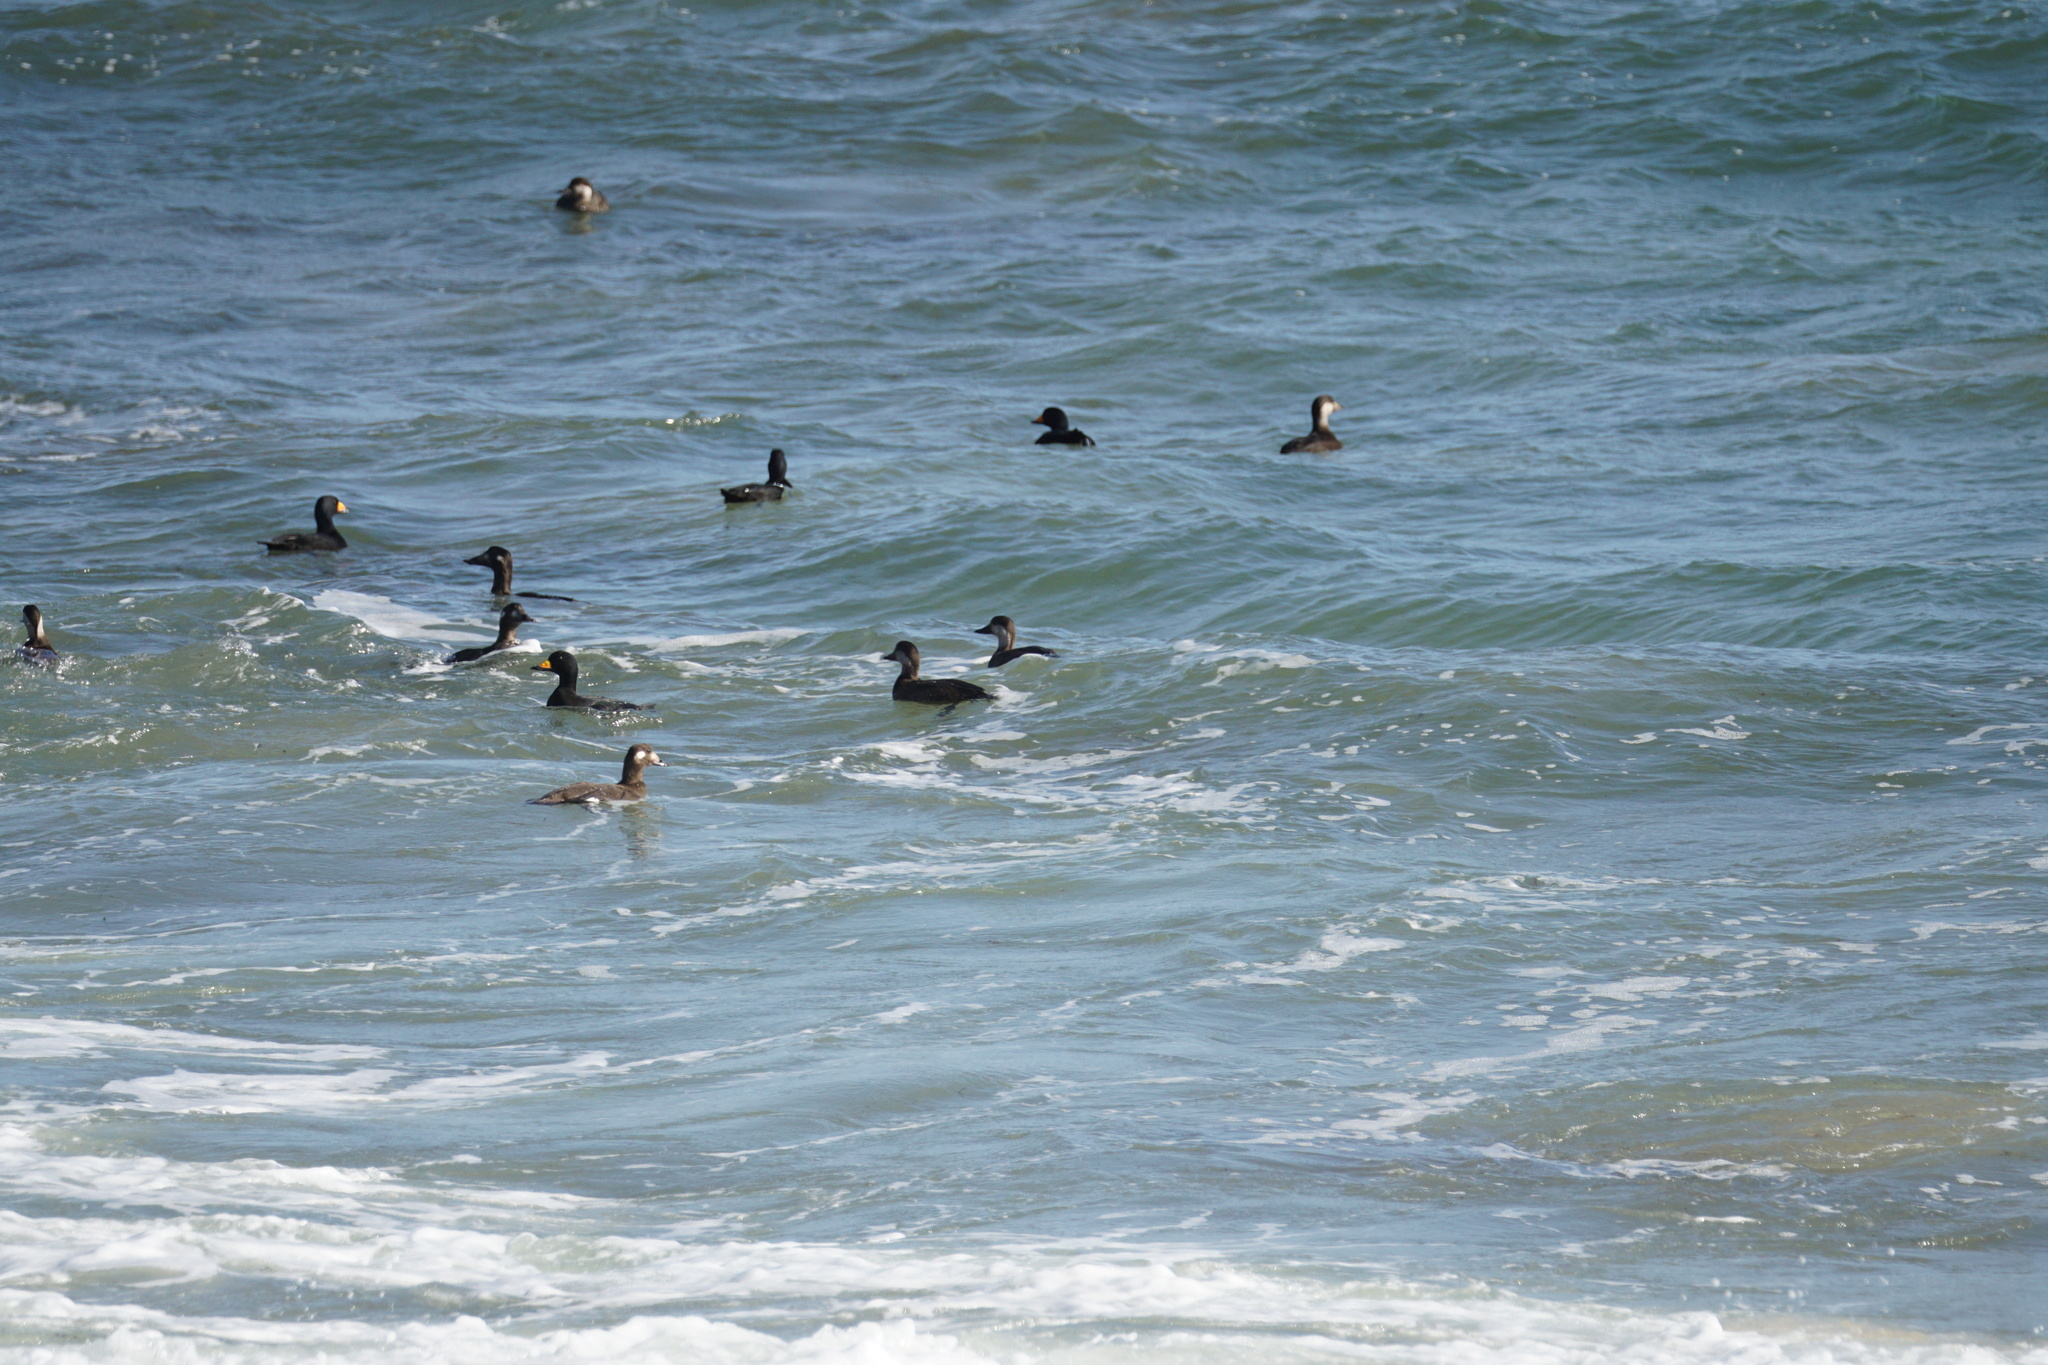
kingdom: Animalia
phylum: Chordata
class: Aves
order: Anseriformes
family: Anatidae
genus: Melanitta
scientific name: Melanitta deglandi
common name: White-winged scoter
